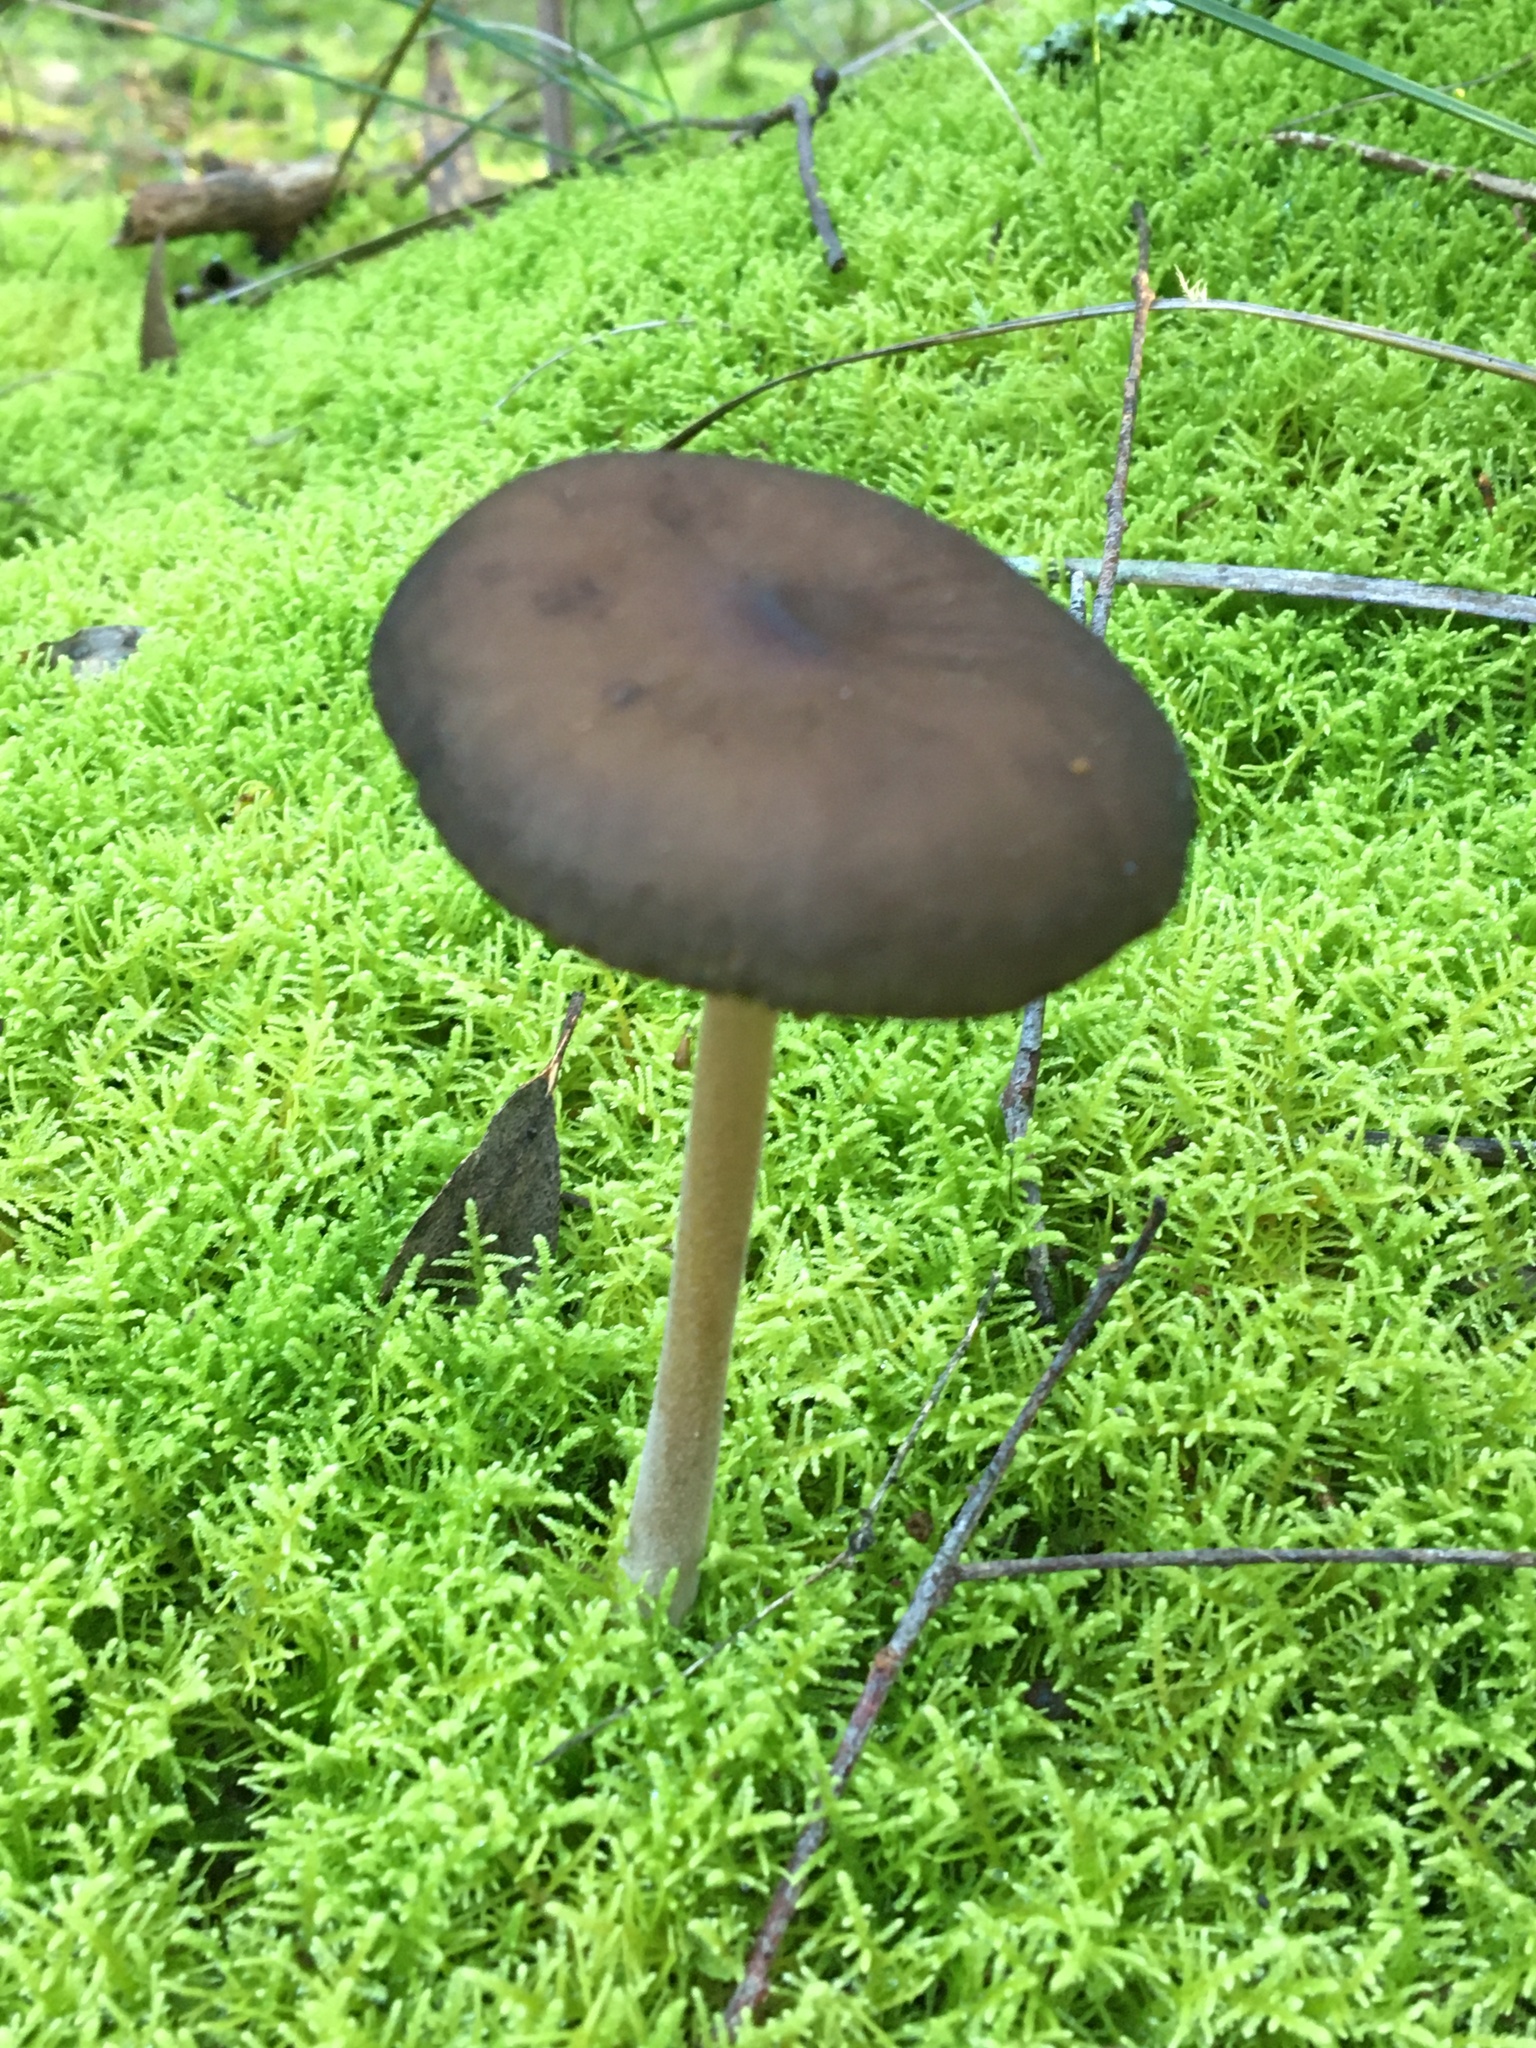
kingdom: Fungi
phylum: Basidiomycota
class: Agaricomycetes
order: Agaricales
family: Physalacriaceae
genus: Hymenopellis
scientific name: Hymenopellis gigaspora
